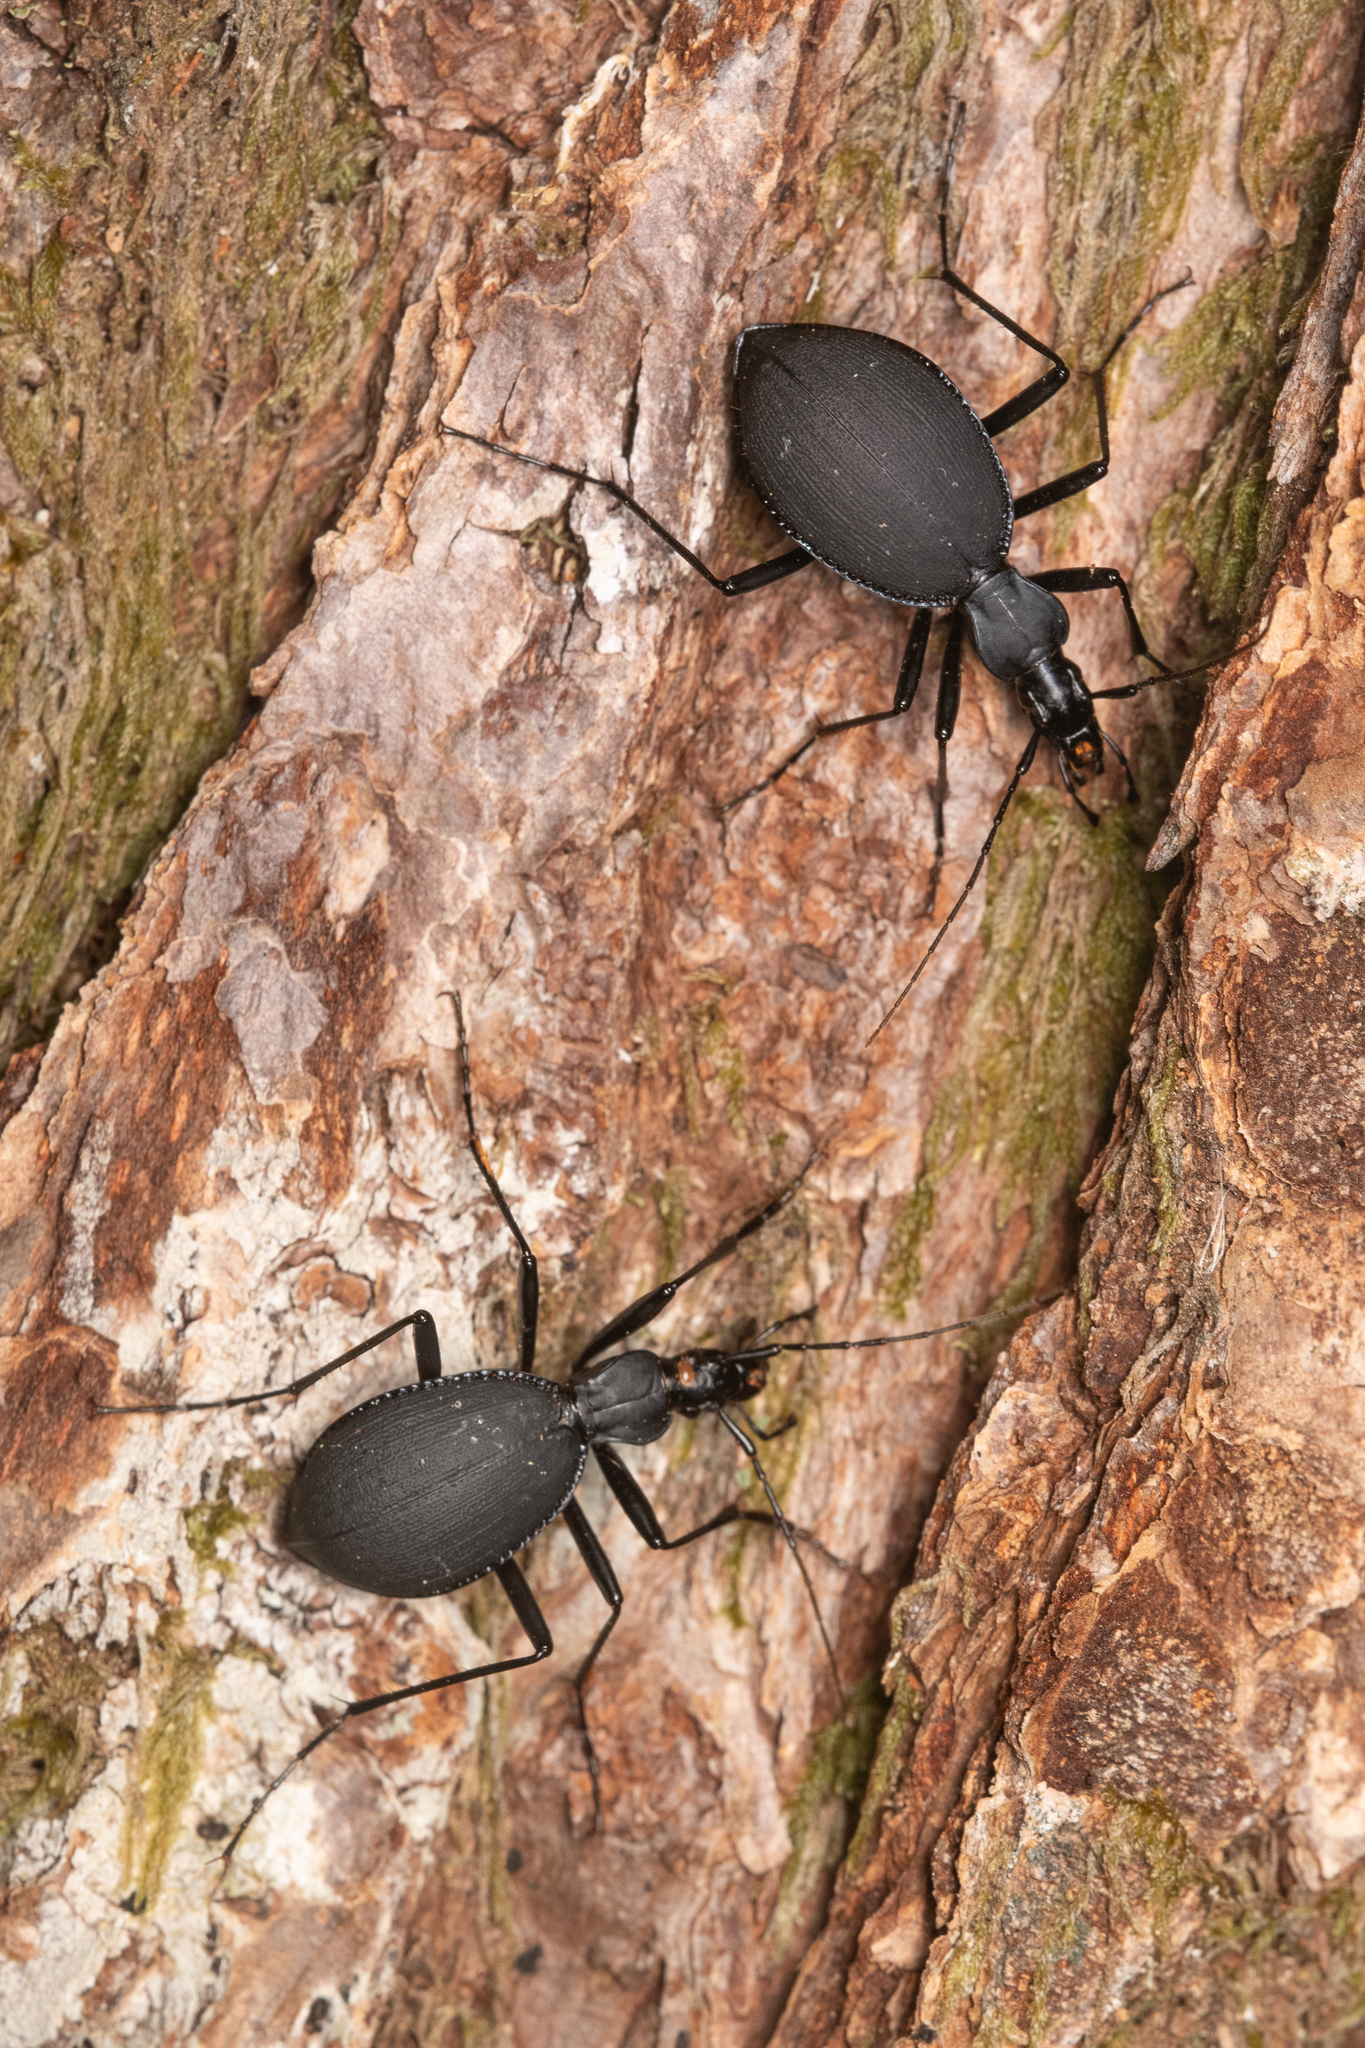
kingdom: Animalia
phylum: Arthropoda
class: Insecta
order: Coleoptera
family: Carabidae
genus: Scaphinotus
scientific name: Scaphinotus angusticollis
